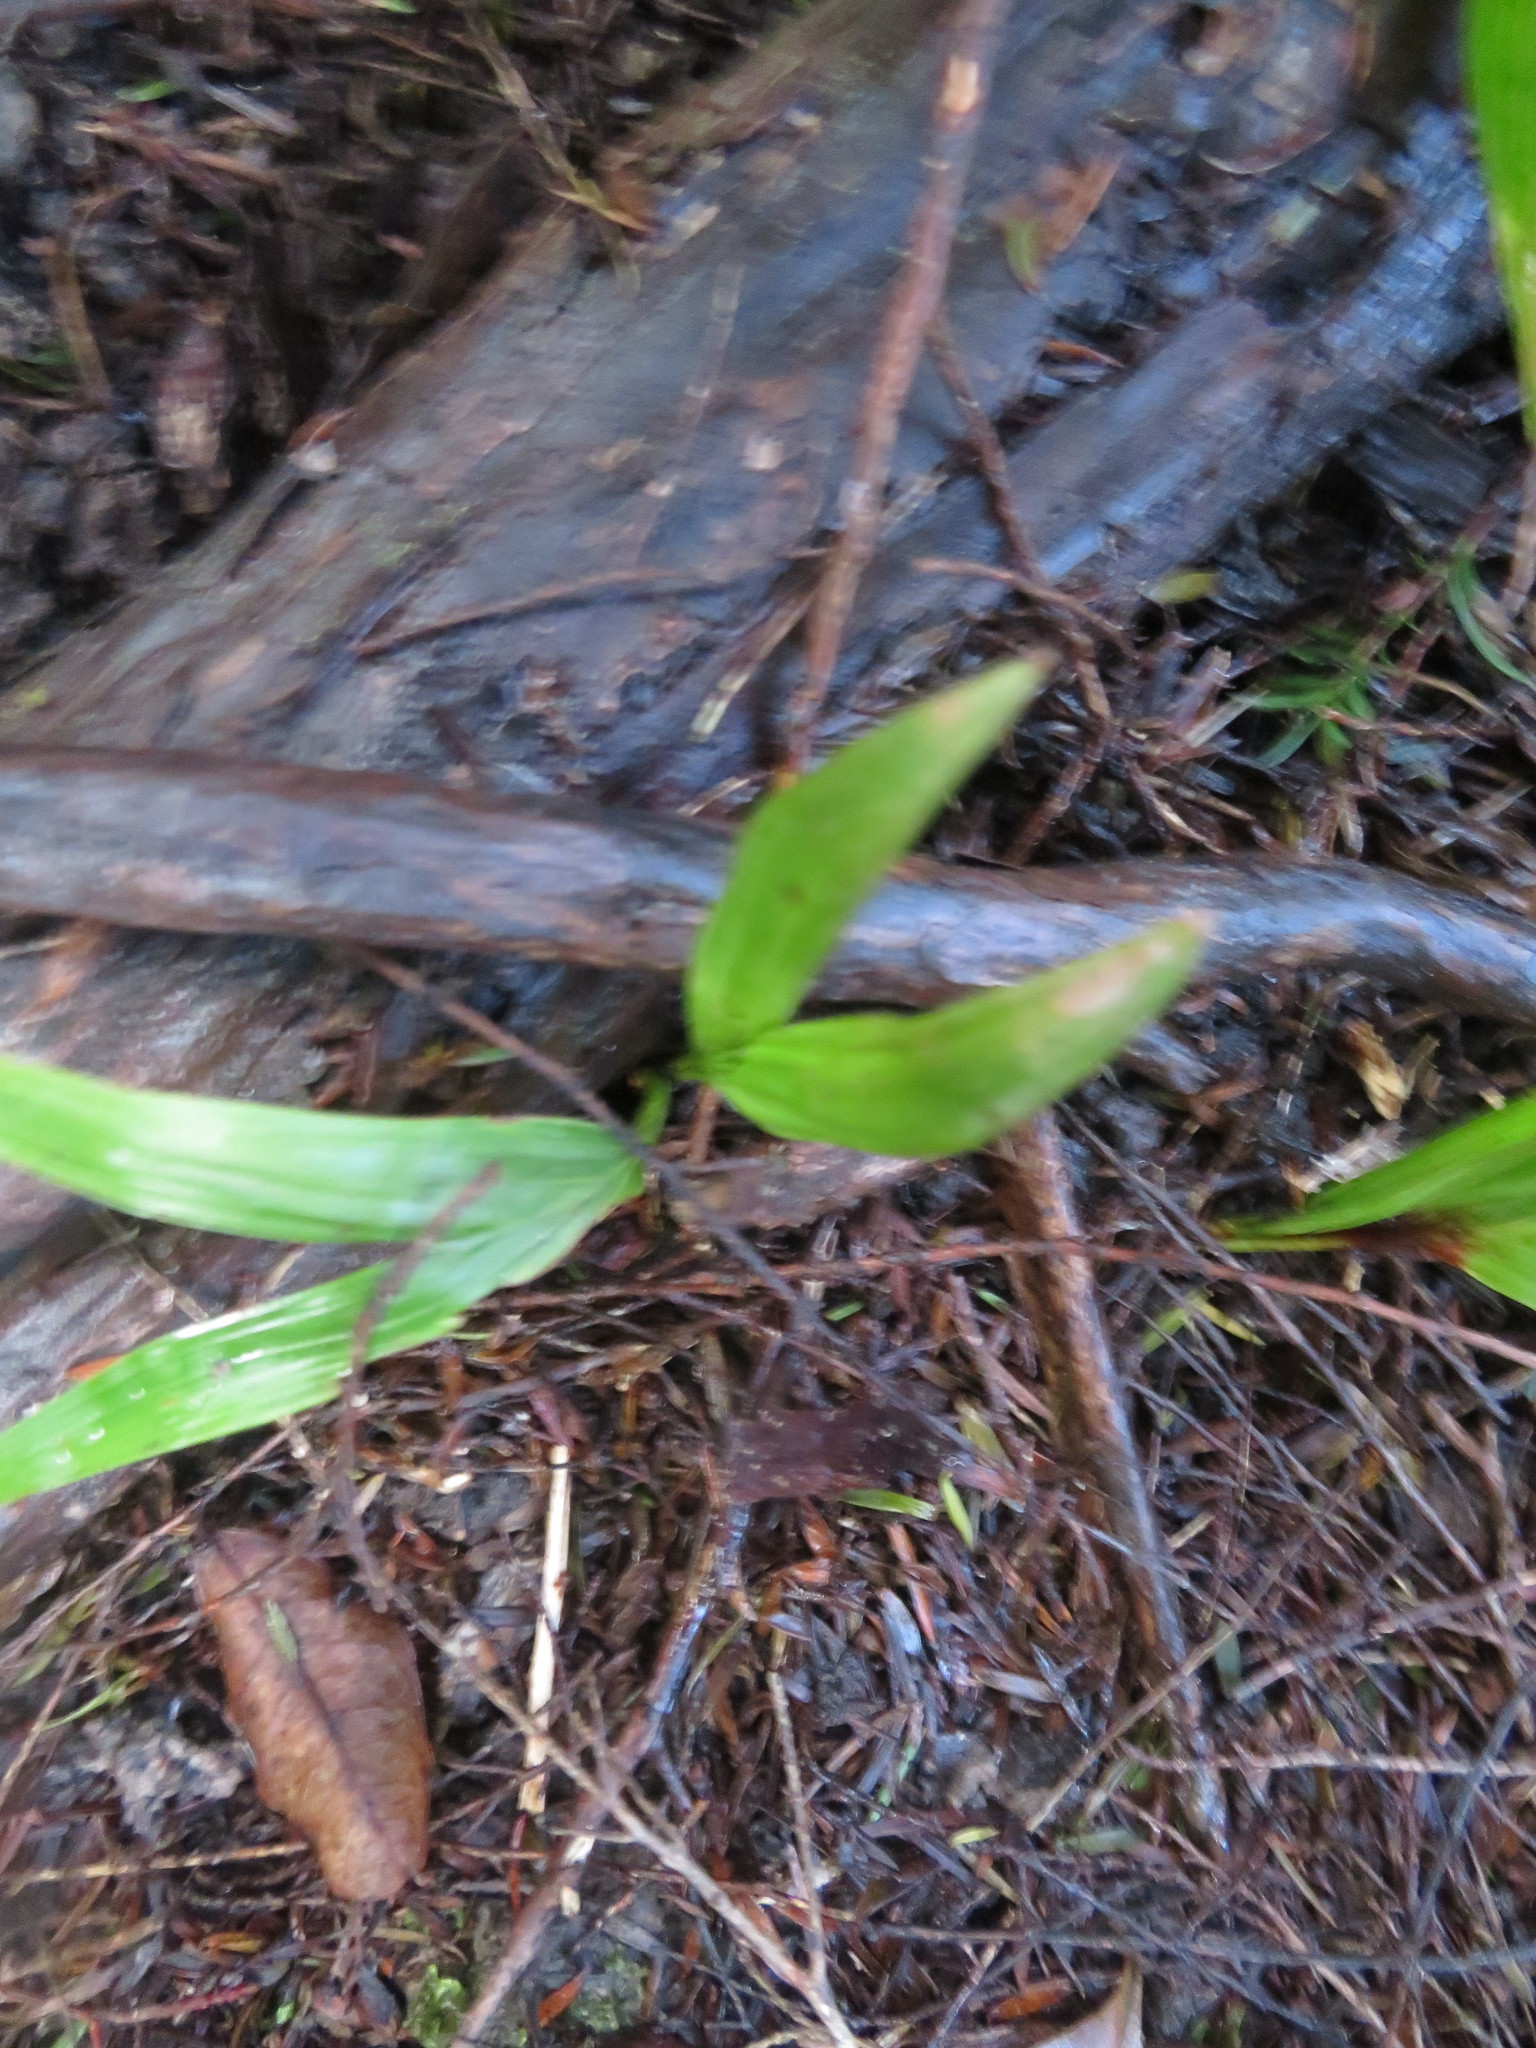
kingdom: Plantae
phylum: Tracheophyta
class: Liliopsida
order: Arecales
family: Arecaceae
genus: Archontophoenix
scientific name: Archontophoenix cunninghamiana
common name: Piccabeen bangalow palm
